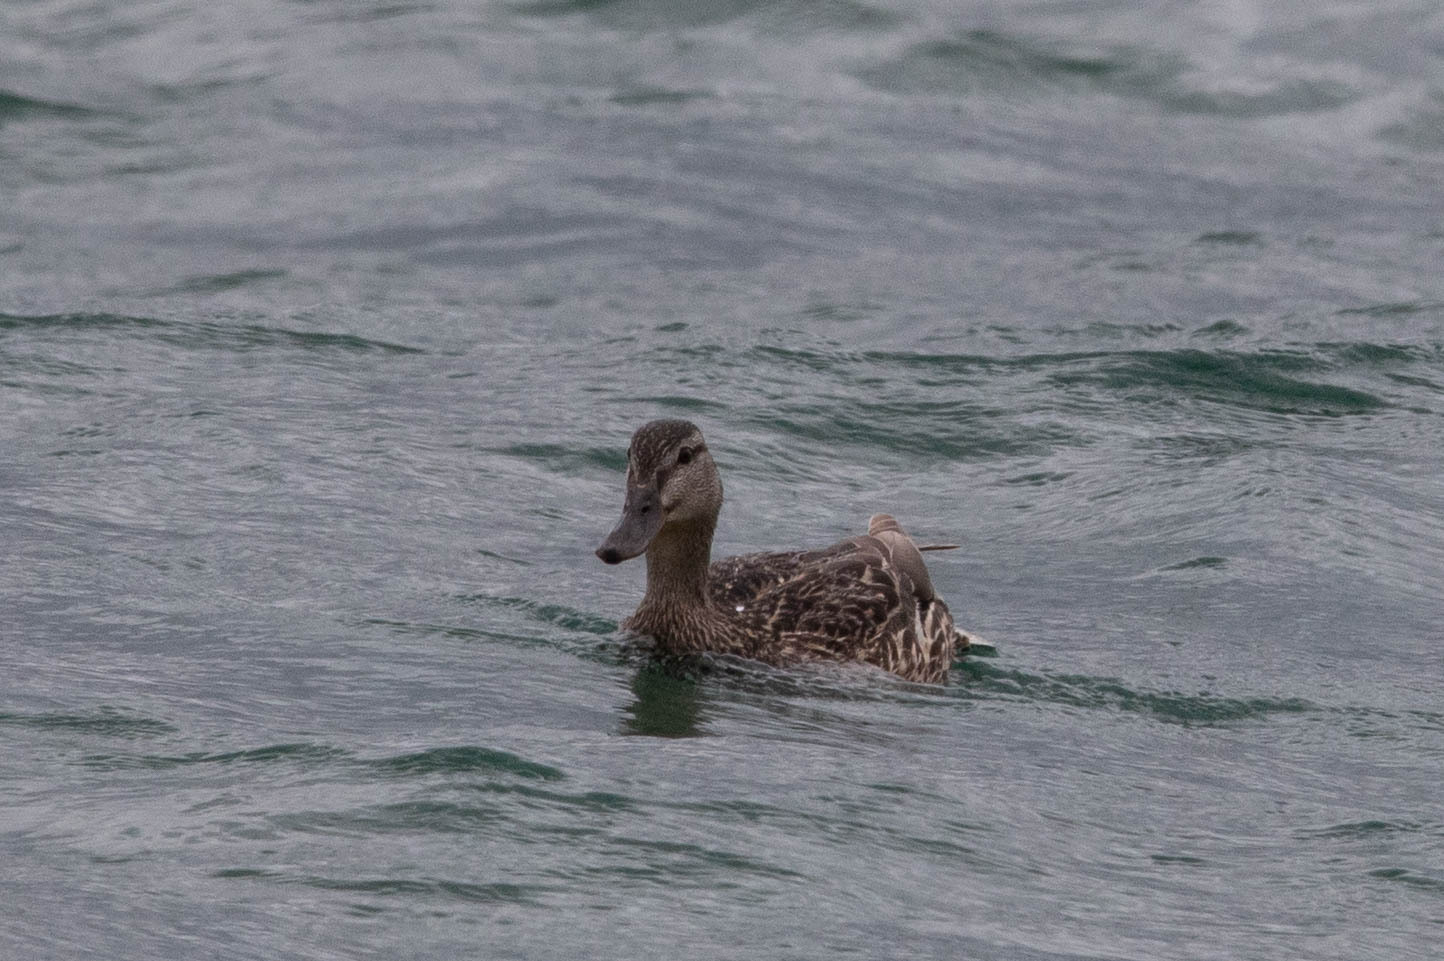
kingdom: Animalia
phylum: Chordata
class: Aves
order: Anseriformes
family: Anatidae
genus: Anas
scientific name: Anas platyrhynchos
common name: Mallard
